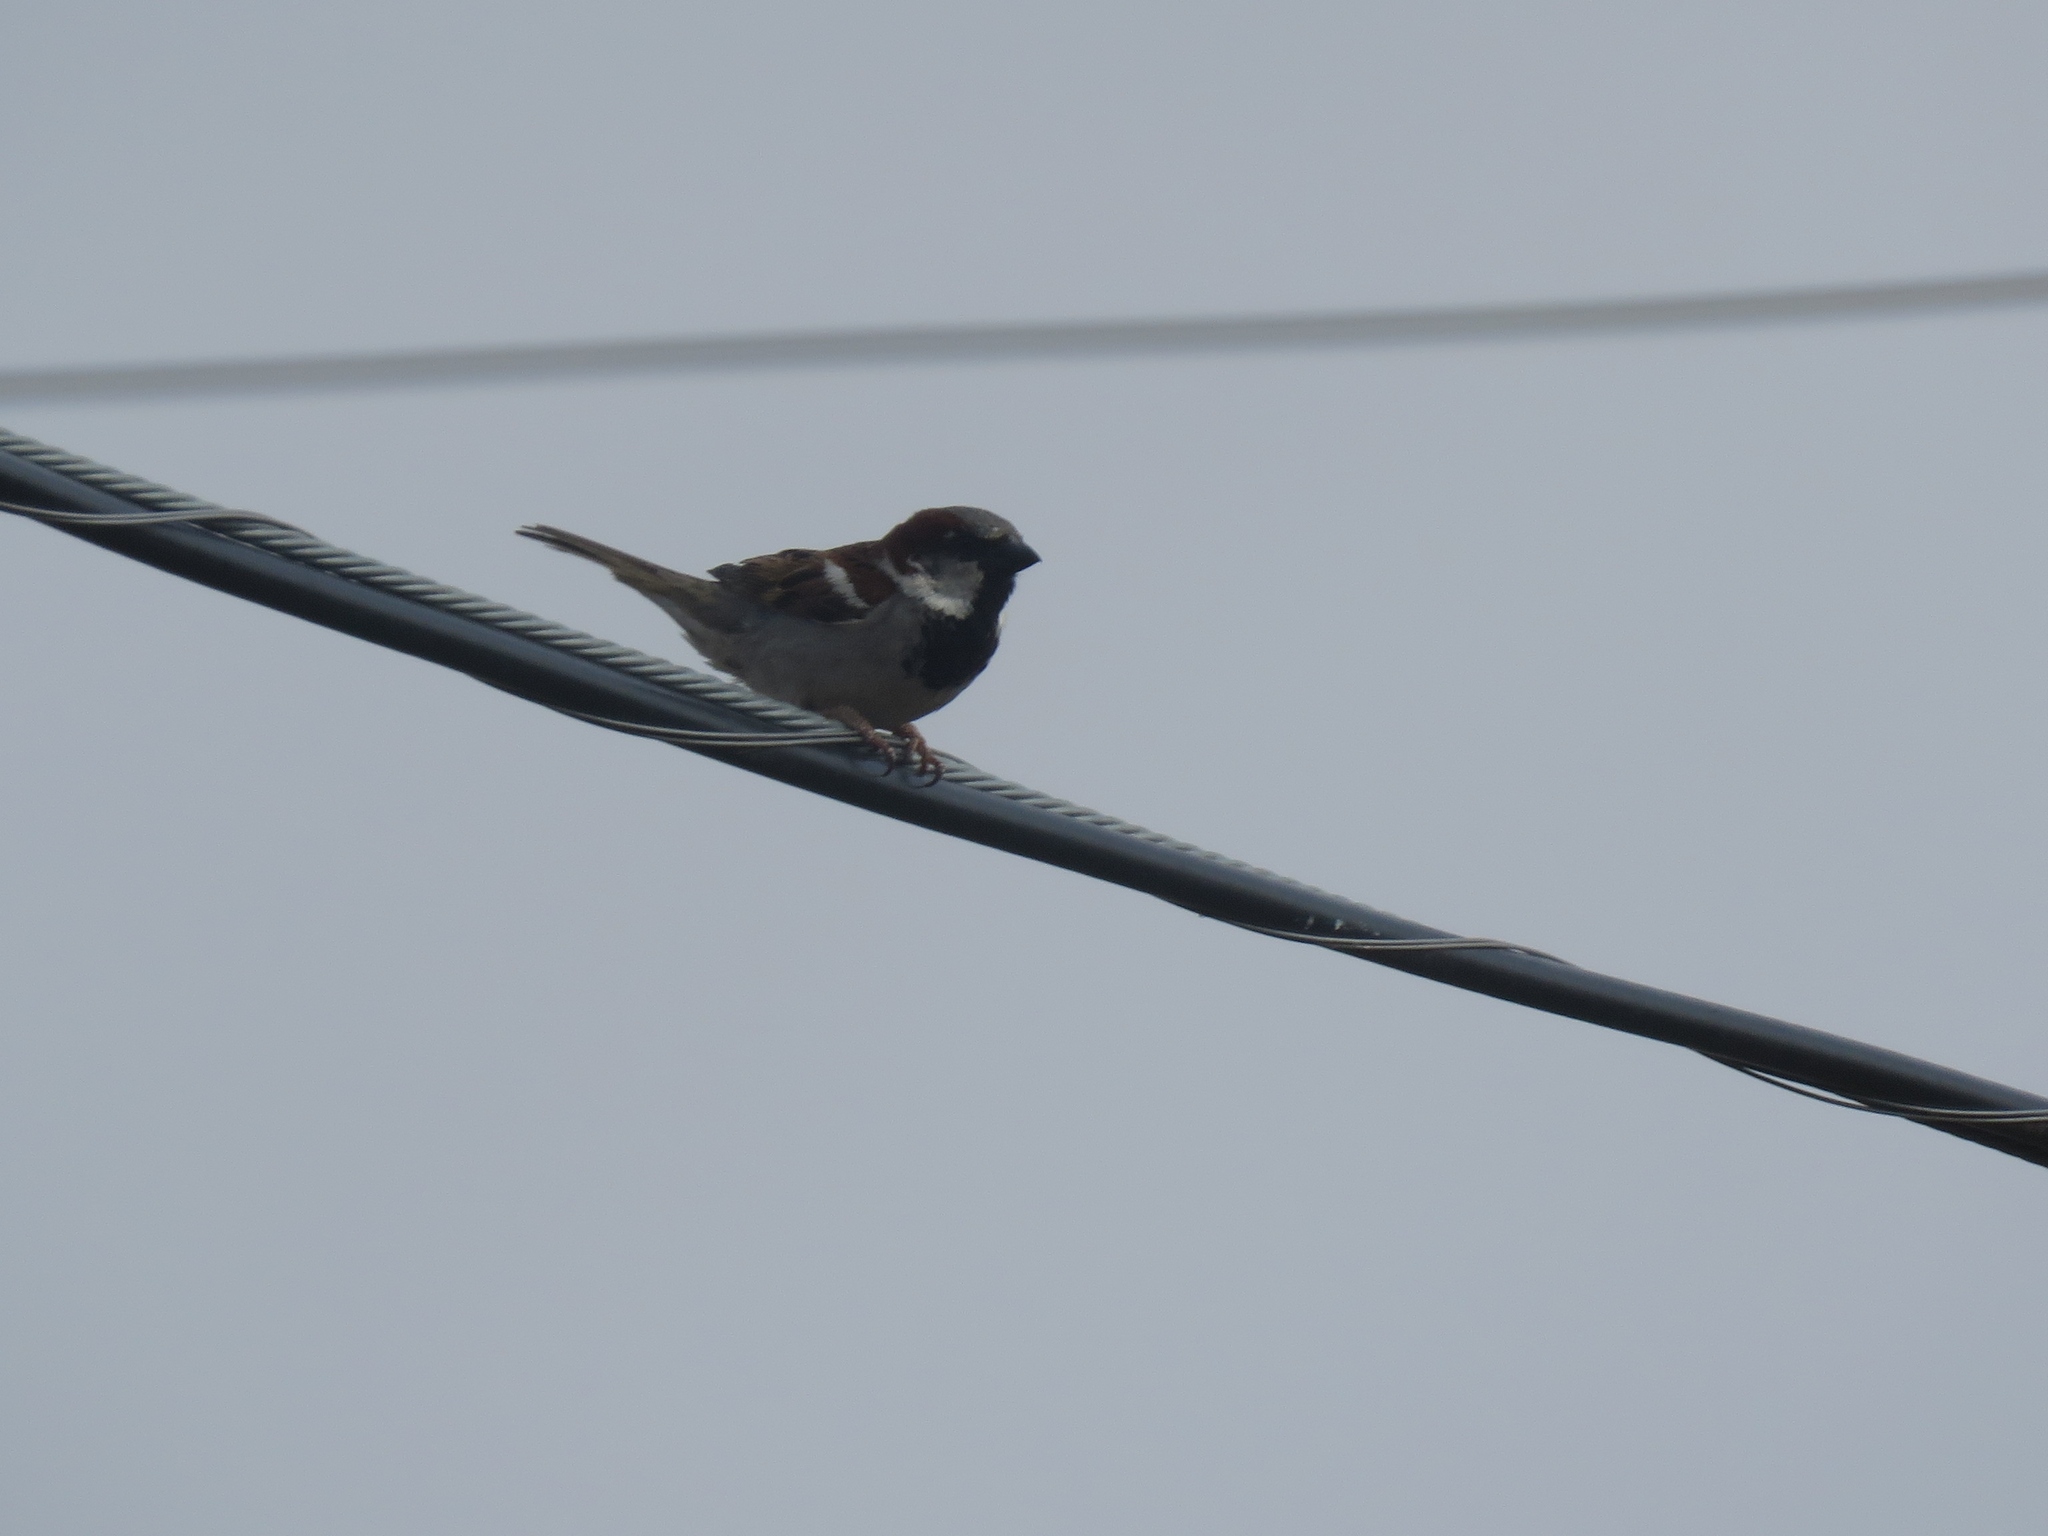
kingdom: Animalia
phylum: Chordata
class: Aves
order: Passeriformes
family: Passeridae
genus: Passer
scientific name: Passer domesticus
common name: House sparrow
